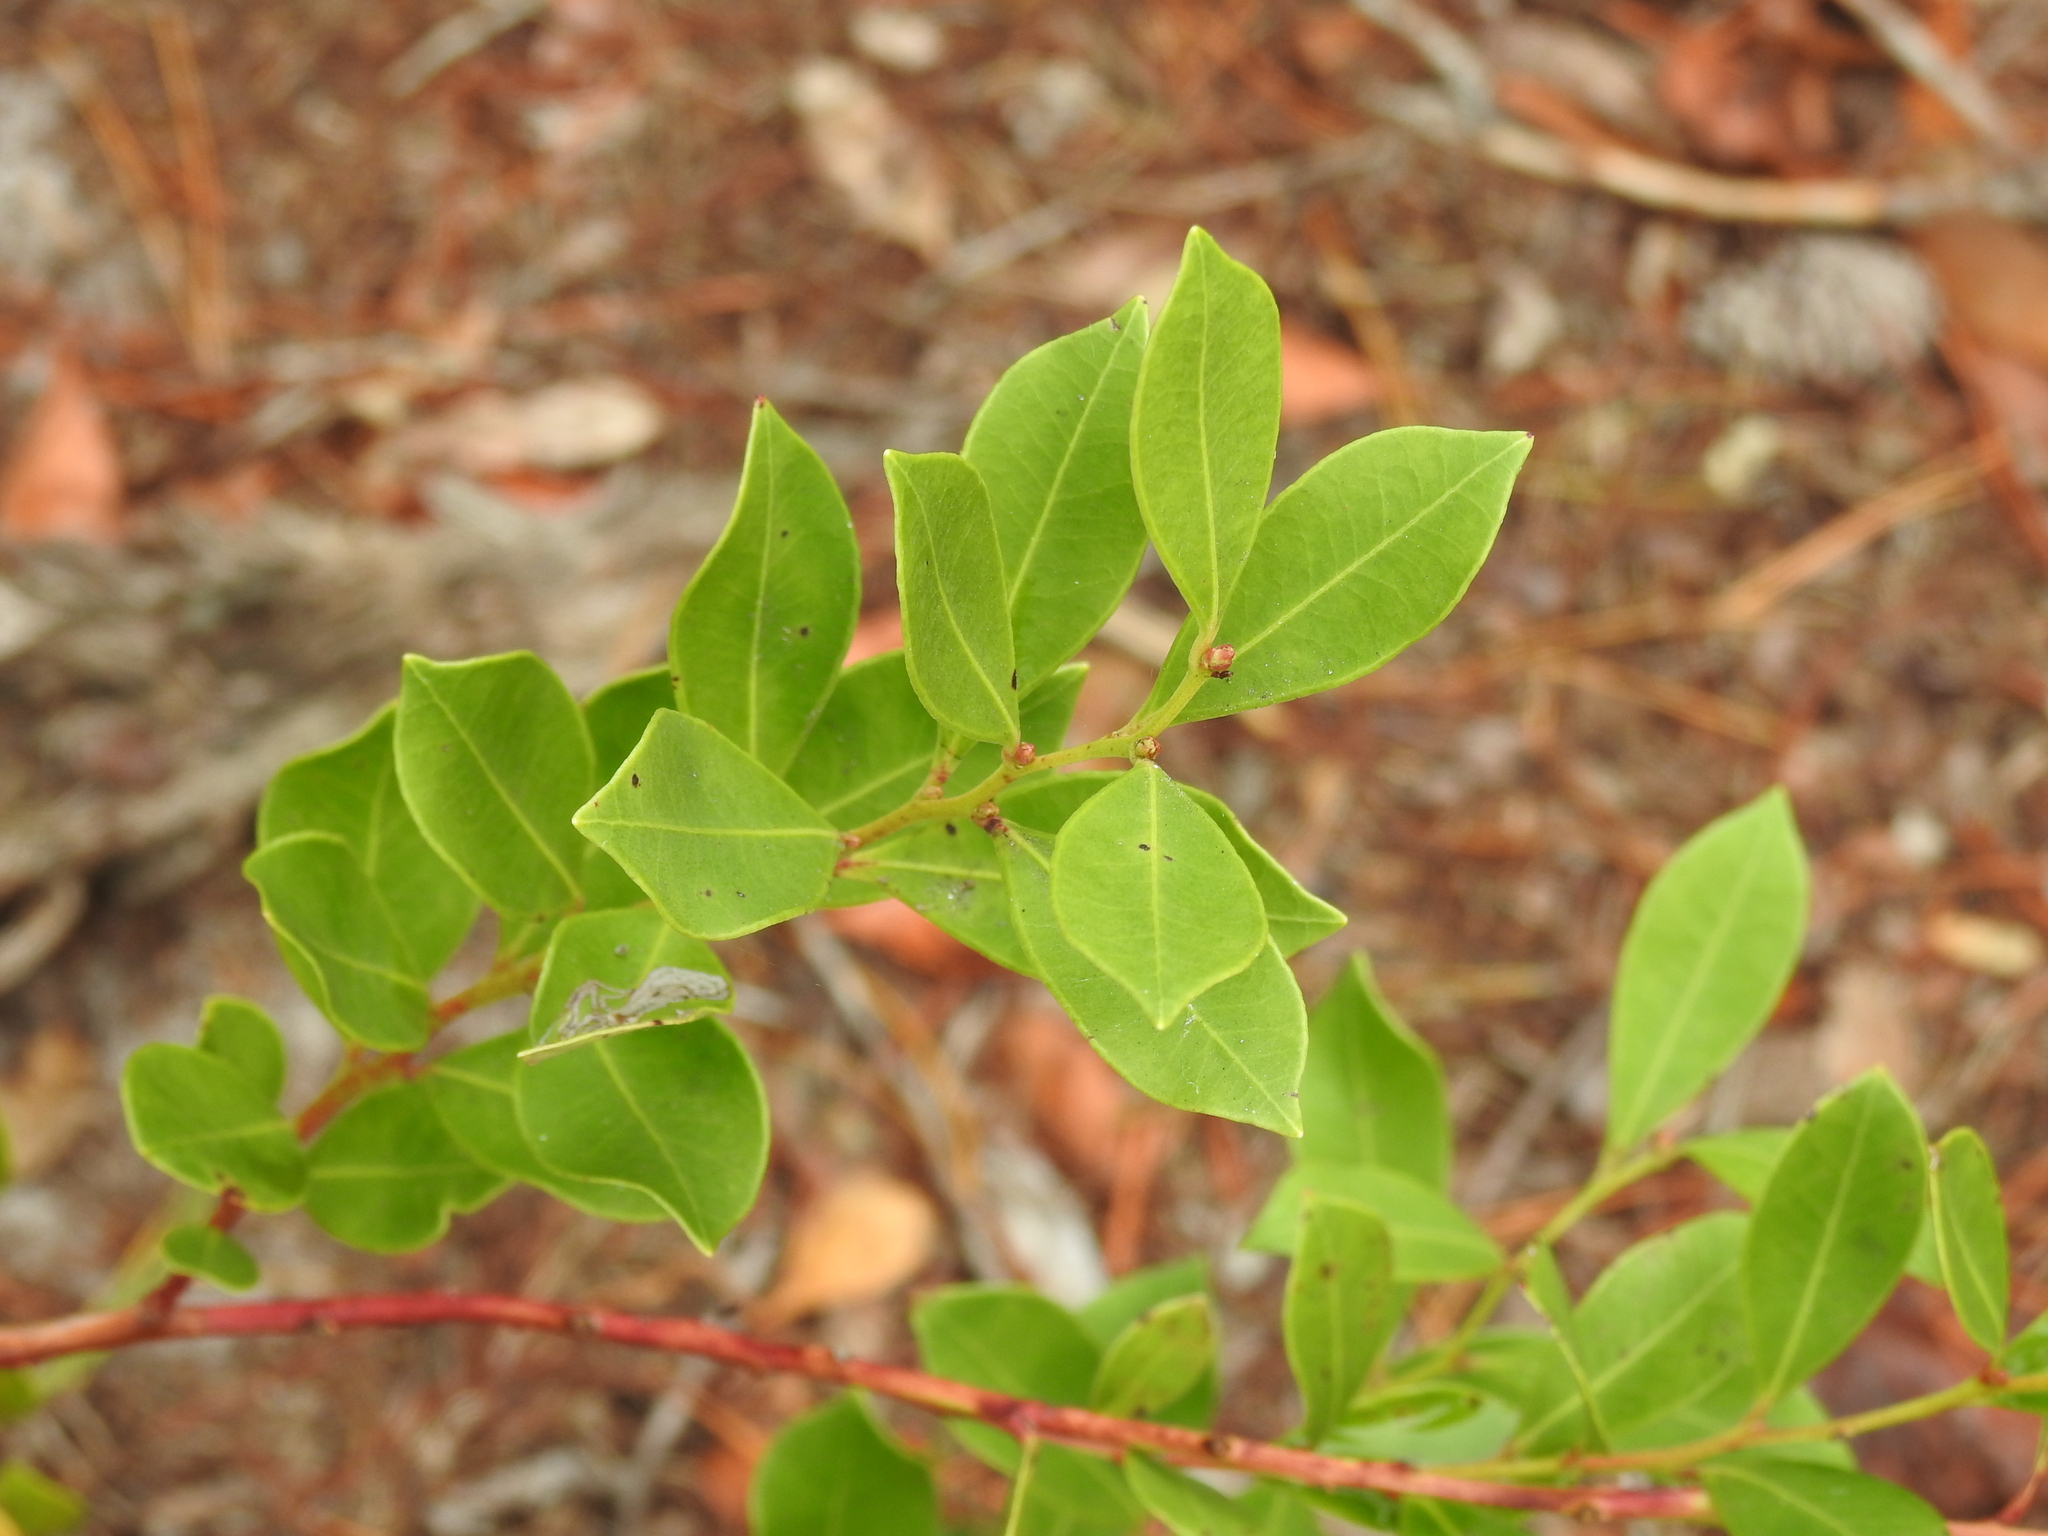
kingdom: Plantae
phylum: Tracheophyta
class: Magnoliopsida
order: Ericales
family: Ericaceae
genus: Lyonia
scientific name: Lyonia lucida
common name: Fetterbush
